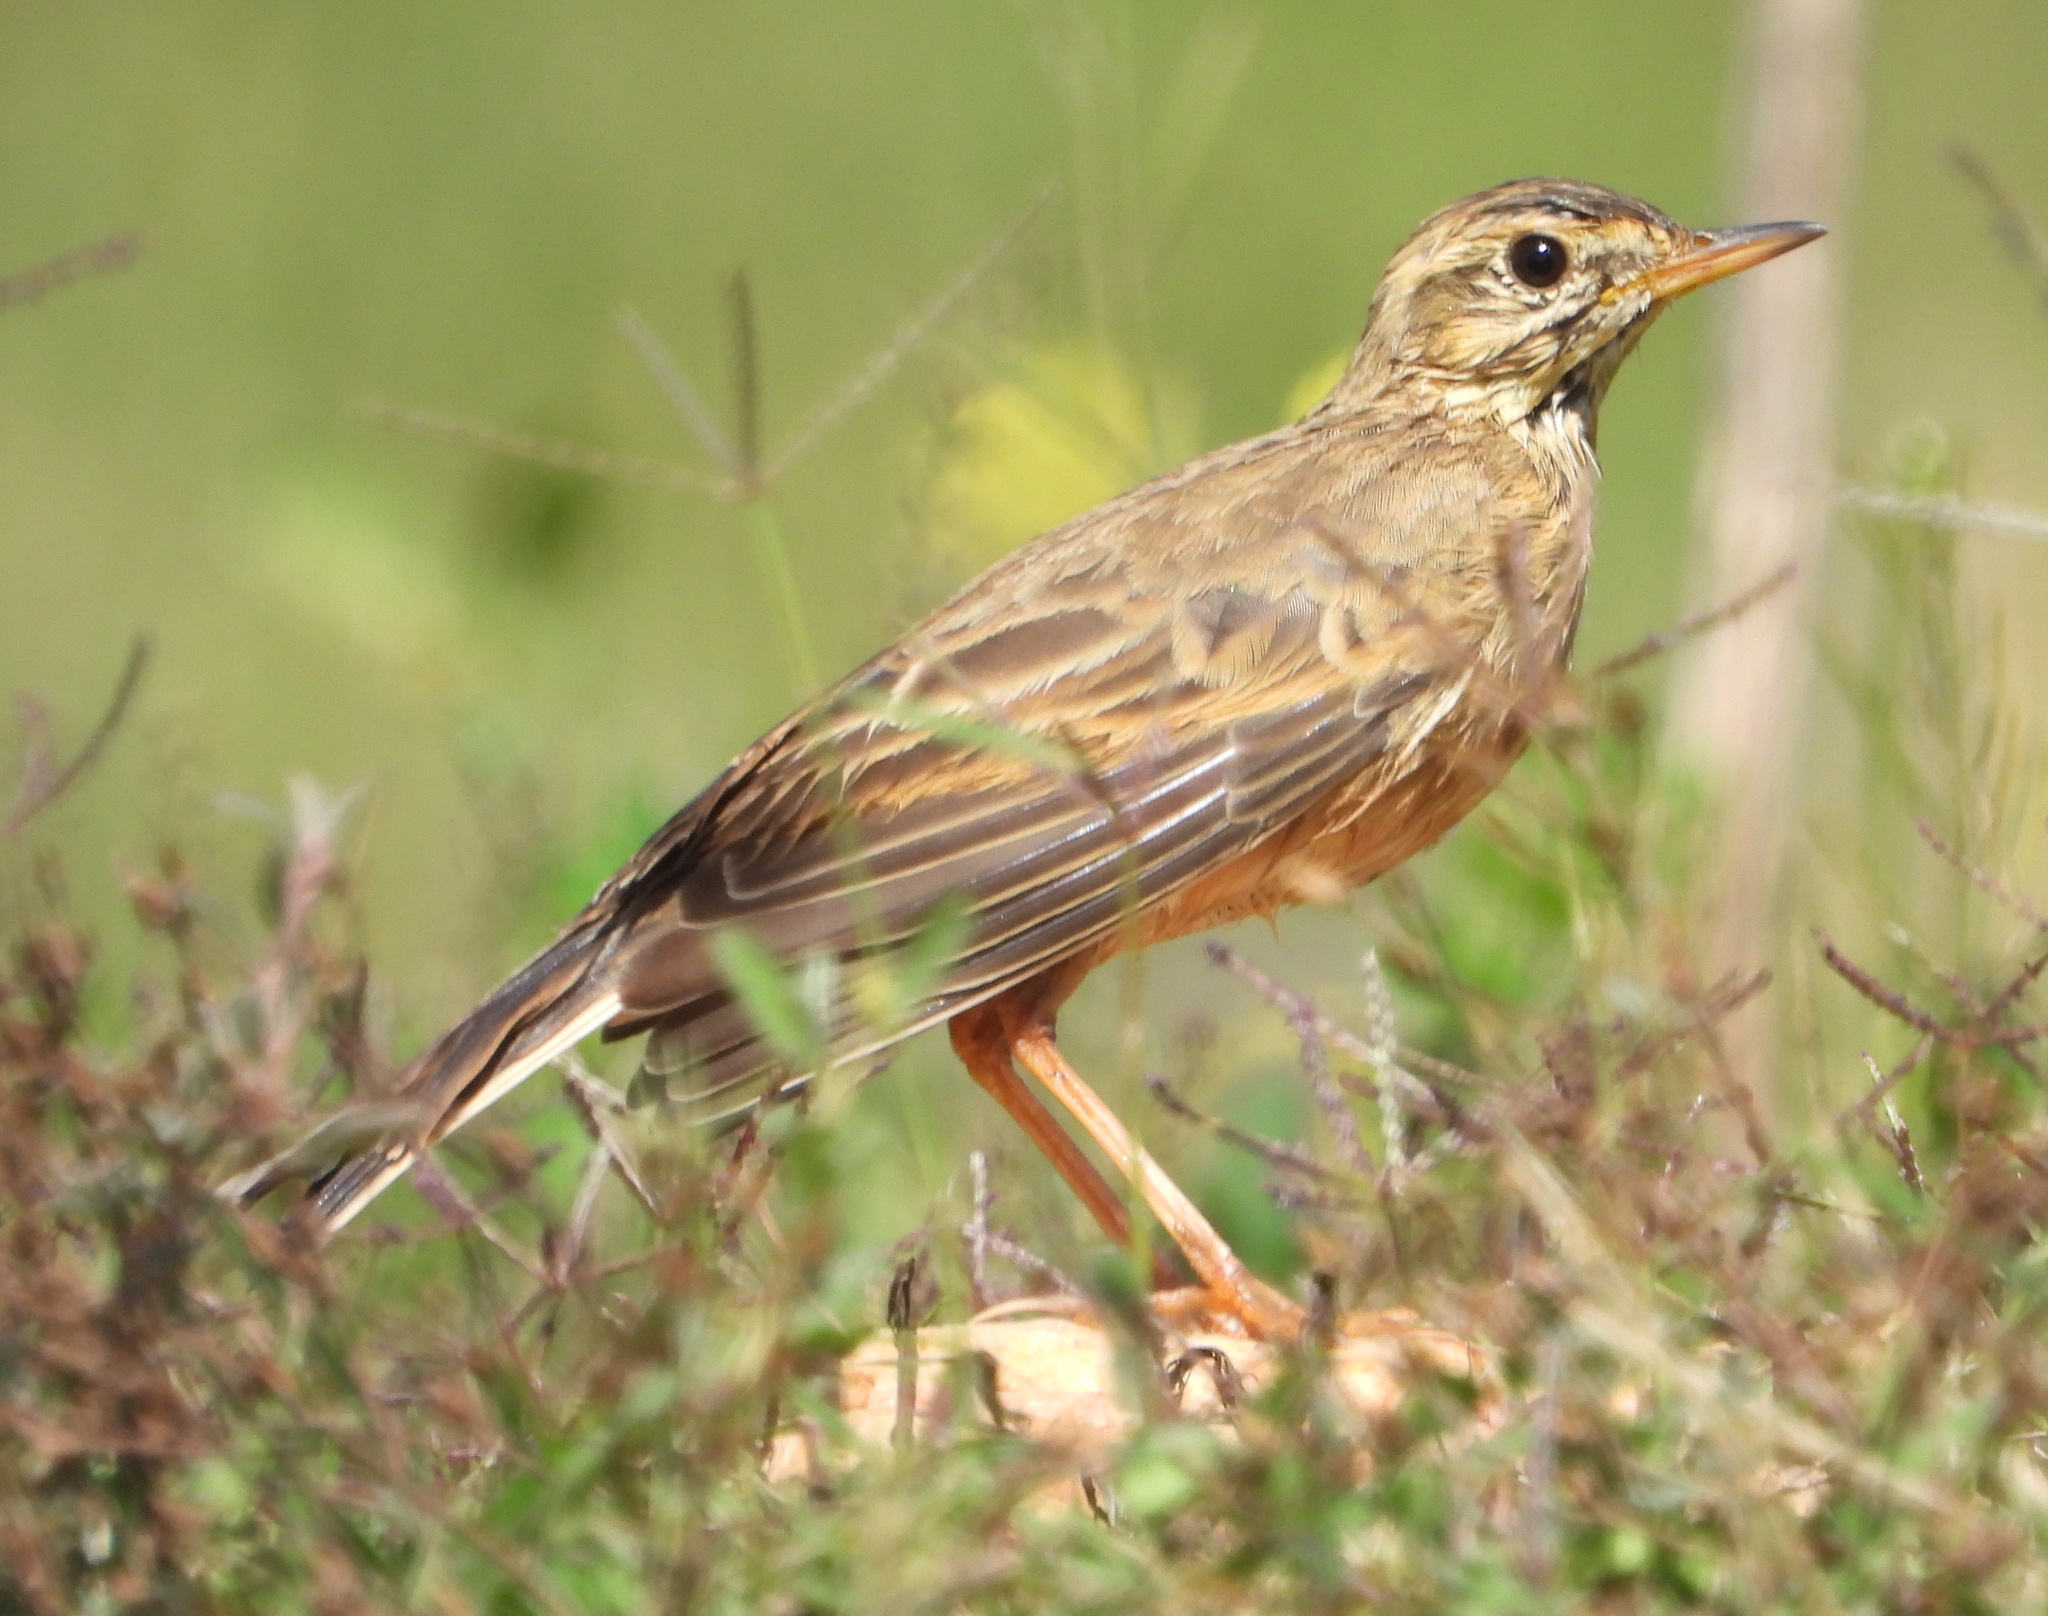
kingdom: Animalia
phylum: Chordata
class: Aves
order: Passeriformes
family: Motacillidae
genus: Anthus
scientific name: Anthus cinnamomeus
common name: African pipit
